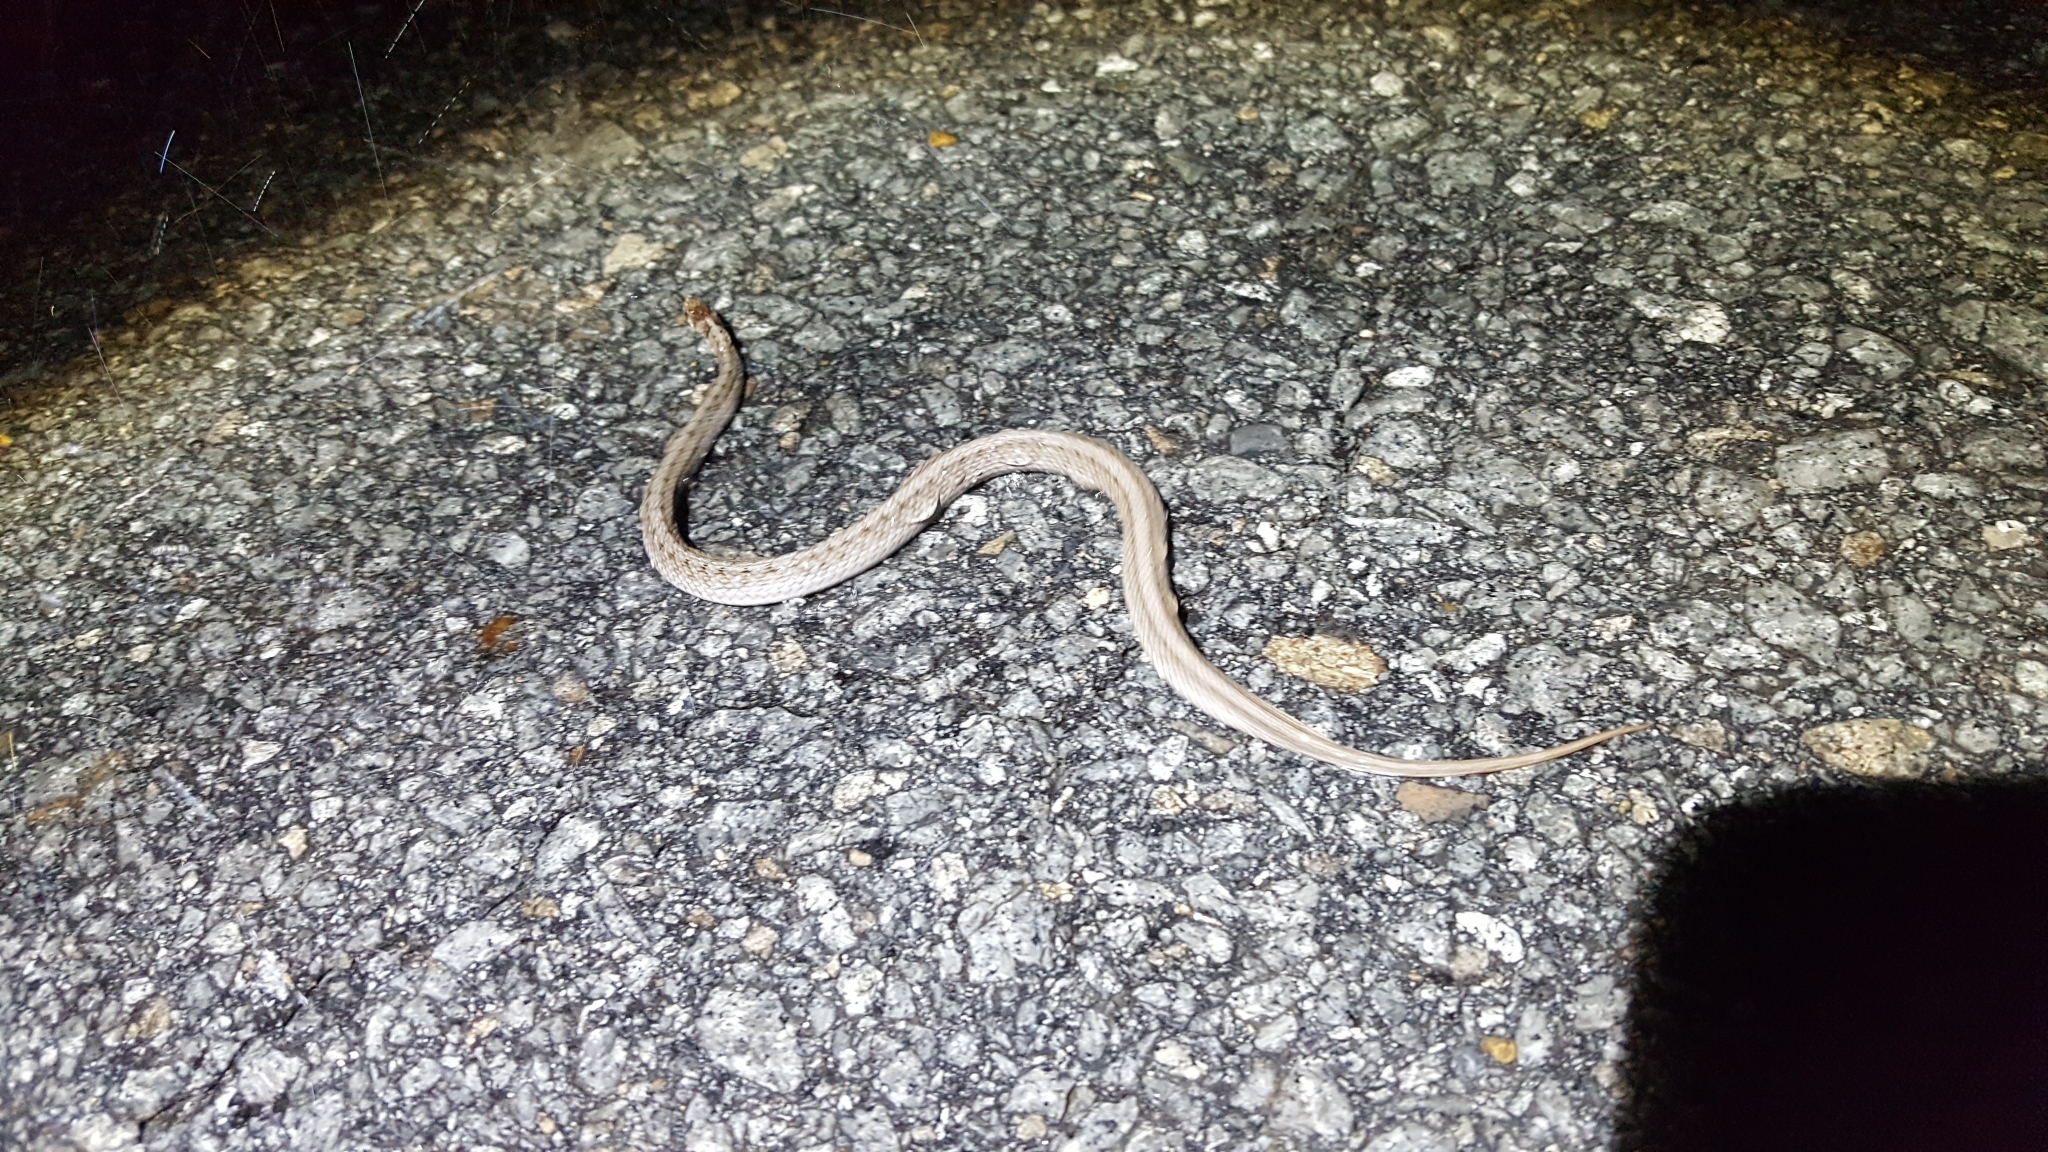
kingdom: Animalia
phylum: Chordata
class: Squamata
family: Colubridae
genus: Storeria
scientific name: Storeria dekayi
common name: (dekay’s) brown snake
